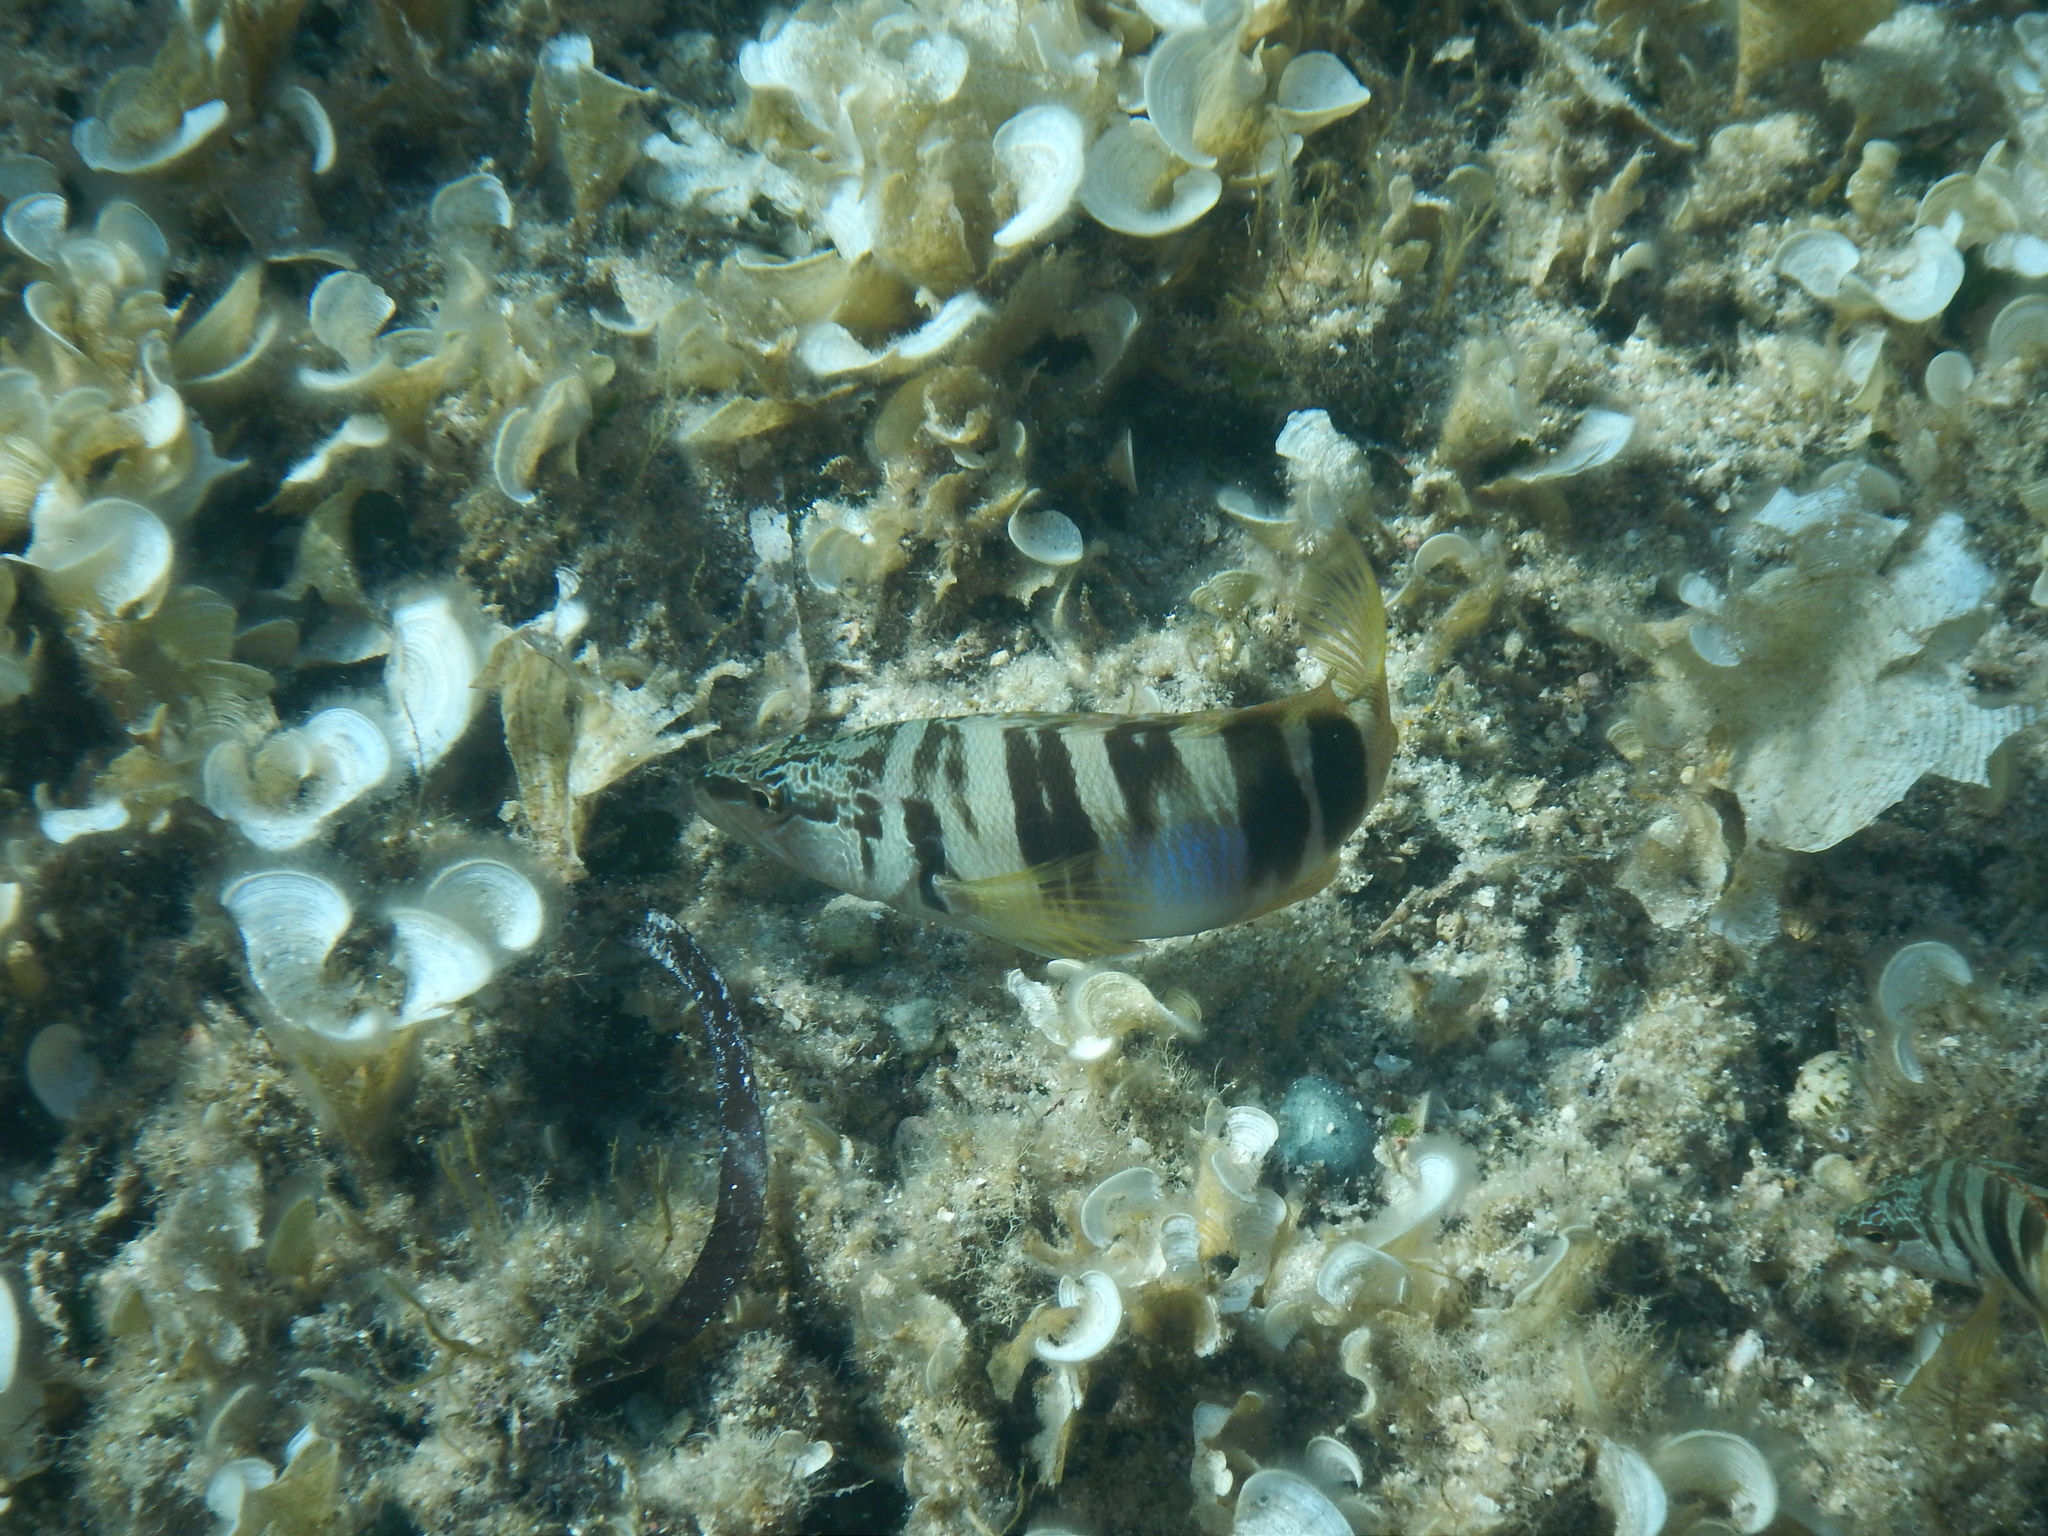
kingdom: Animalia
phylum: Chordata
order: Perciformes
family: Serranidae
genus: Serranus
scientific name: Serranus scriba
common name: Painted comber
